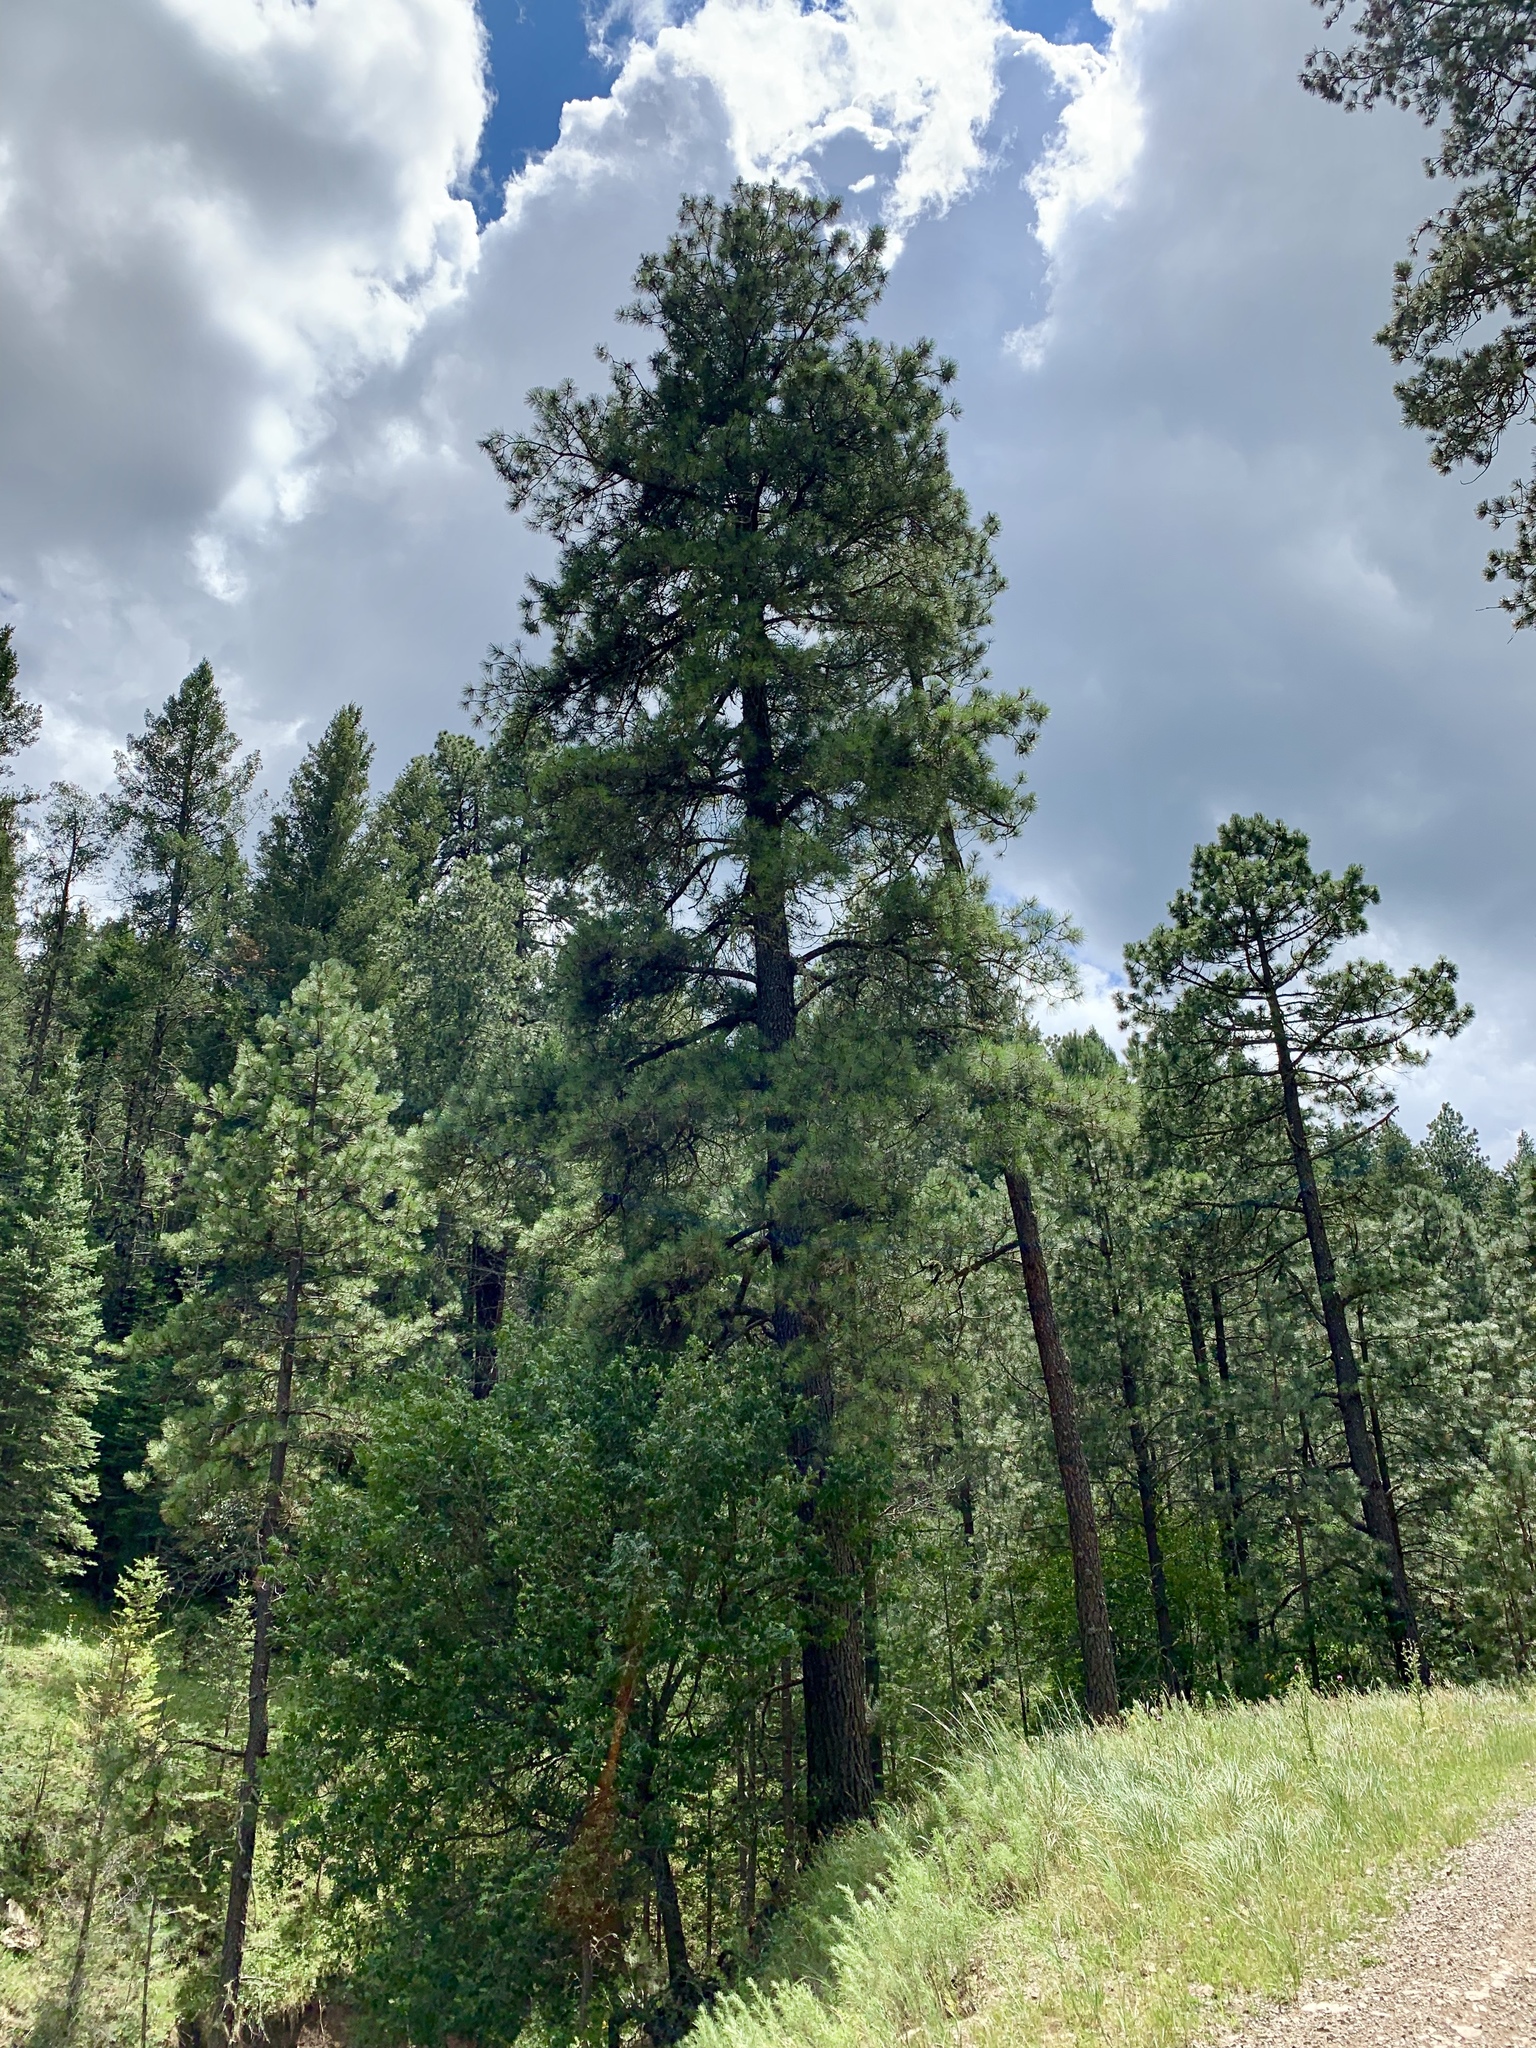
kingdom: Plantae
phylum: Tracheophyta
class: Pinopsida
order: Pinales
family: Pinaceae
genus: Pinus
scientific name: Pinus ponderosa
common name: Western yellow-pine
